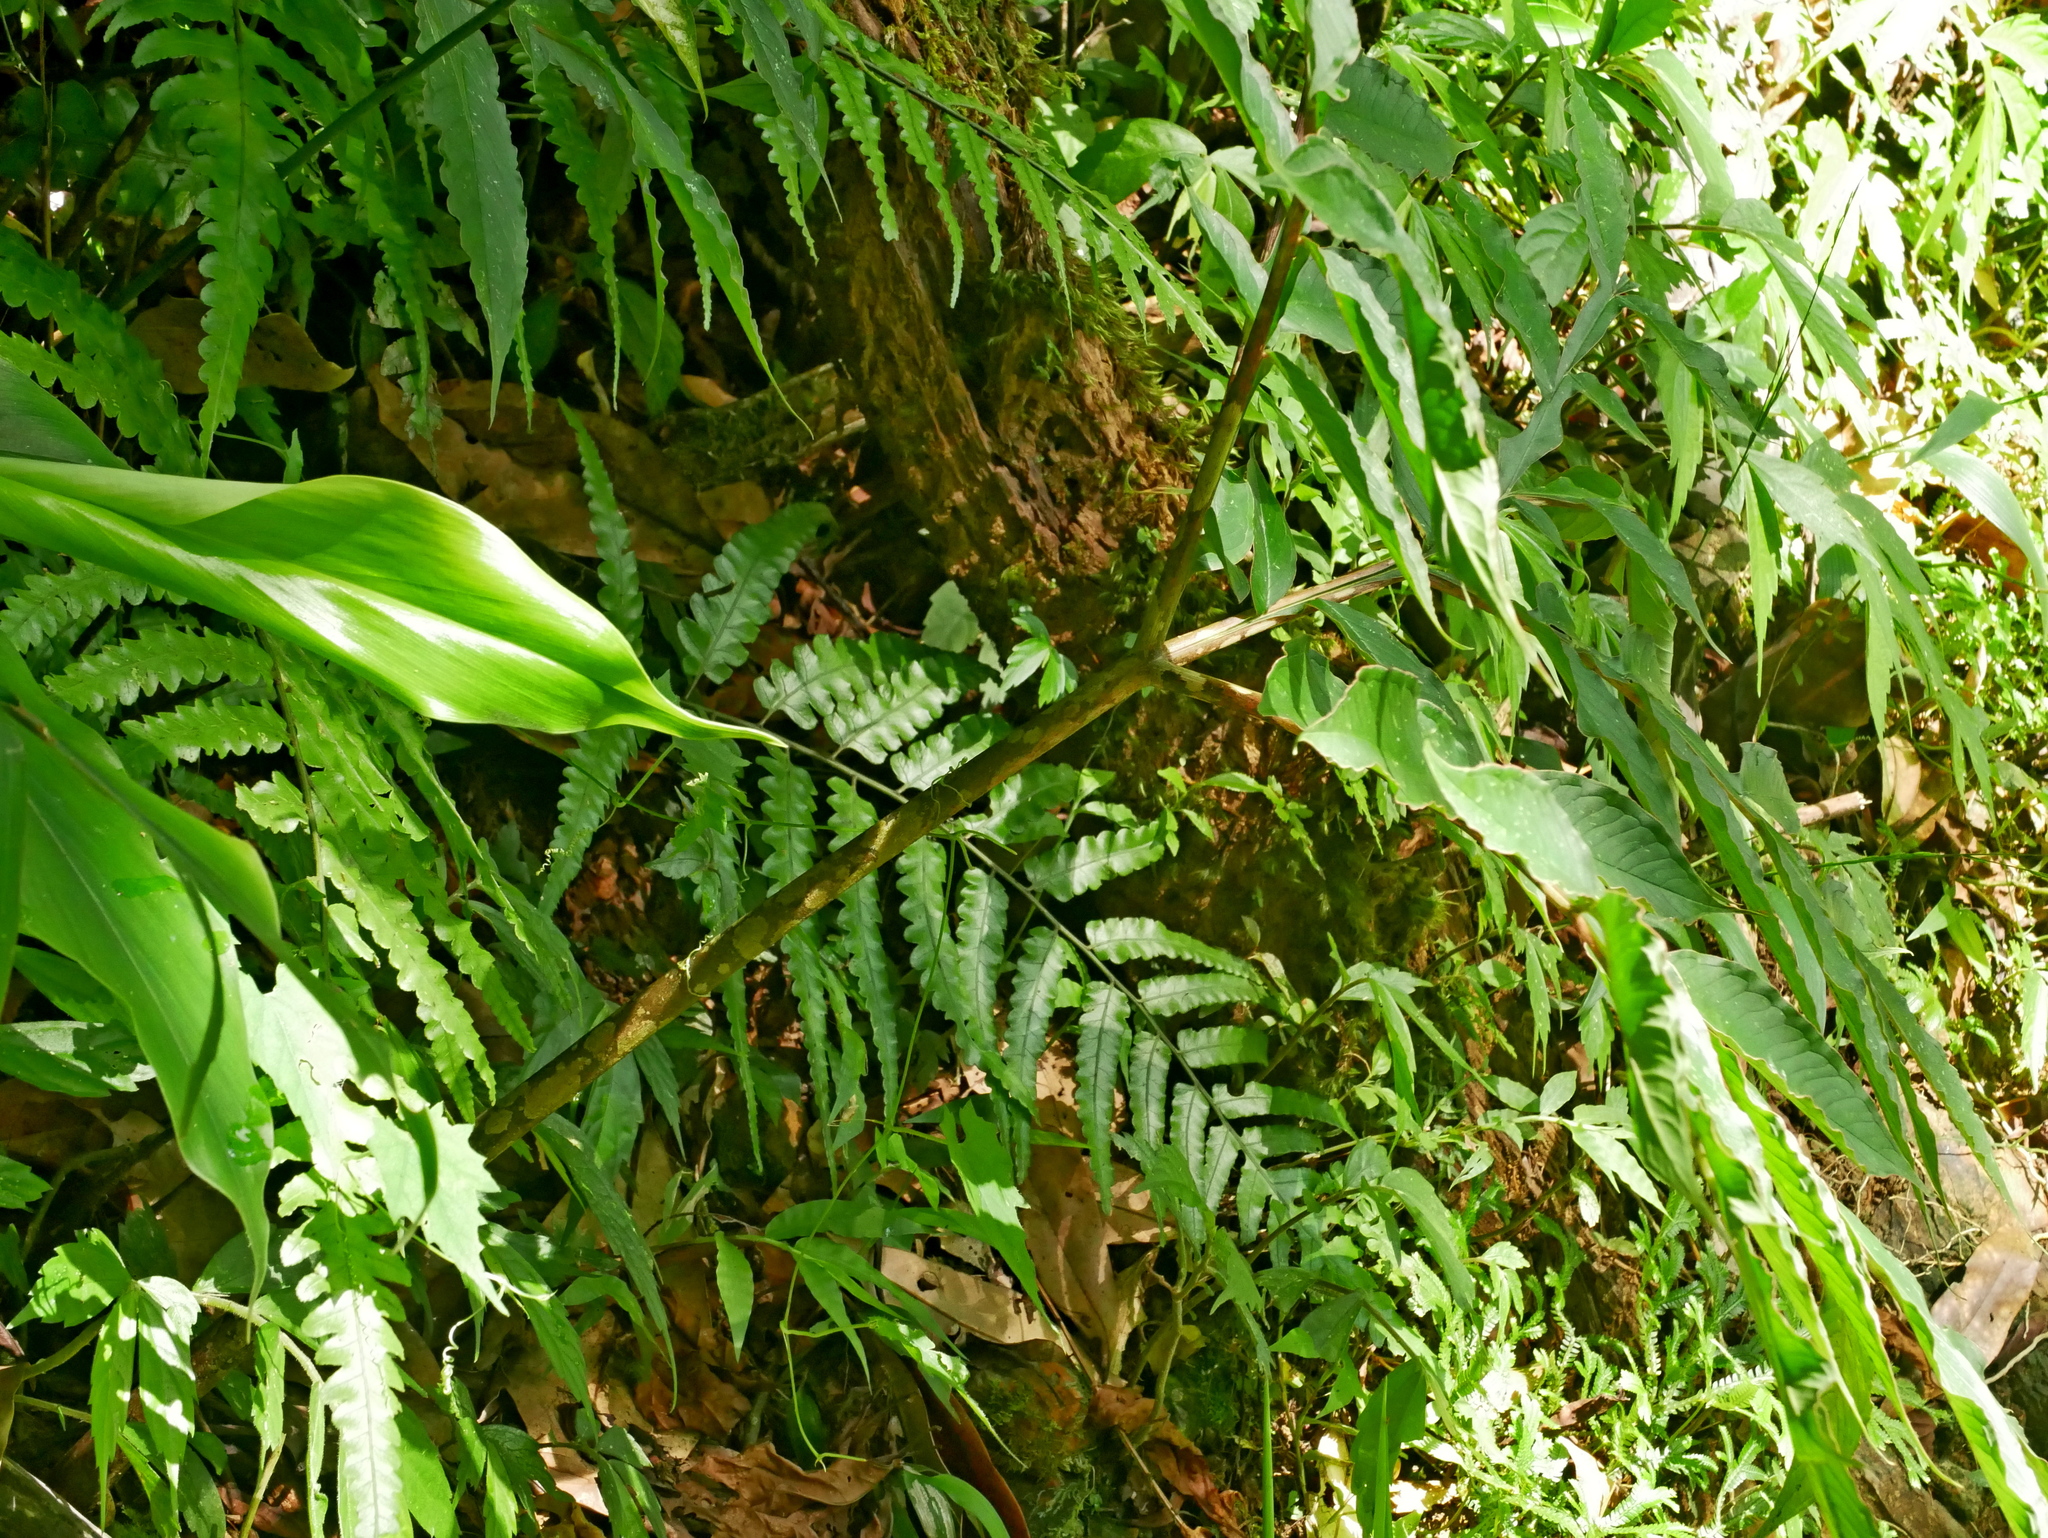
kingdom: Plantae
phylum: Tracheophyta
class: Liliopsida
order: Alismatales
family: Araceae
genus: Amorphophallus
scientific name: Amorphophallus kiusianus
